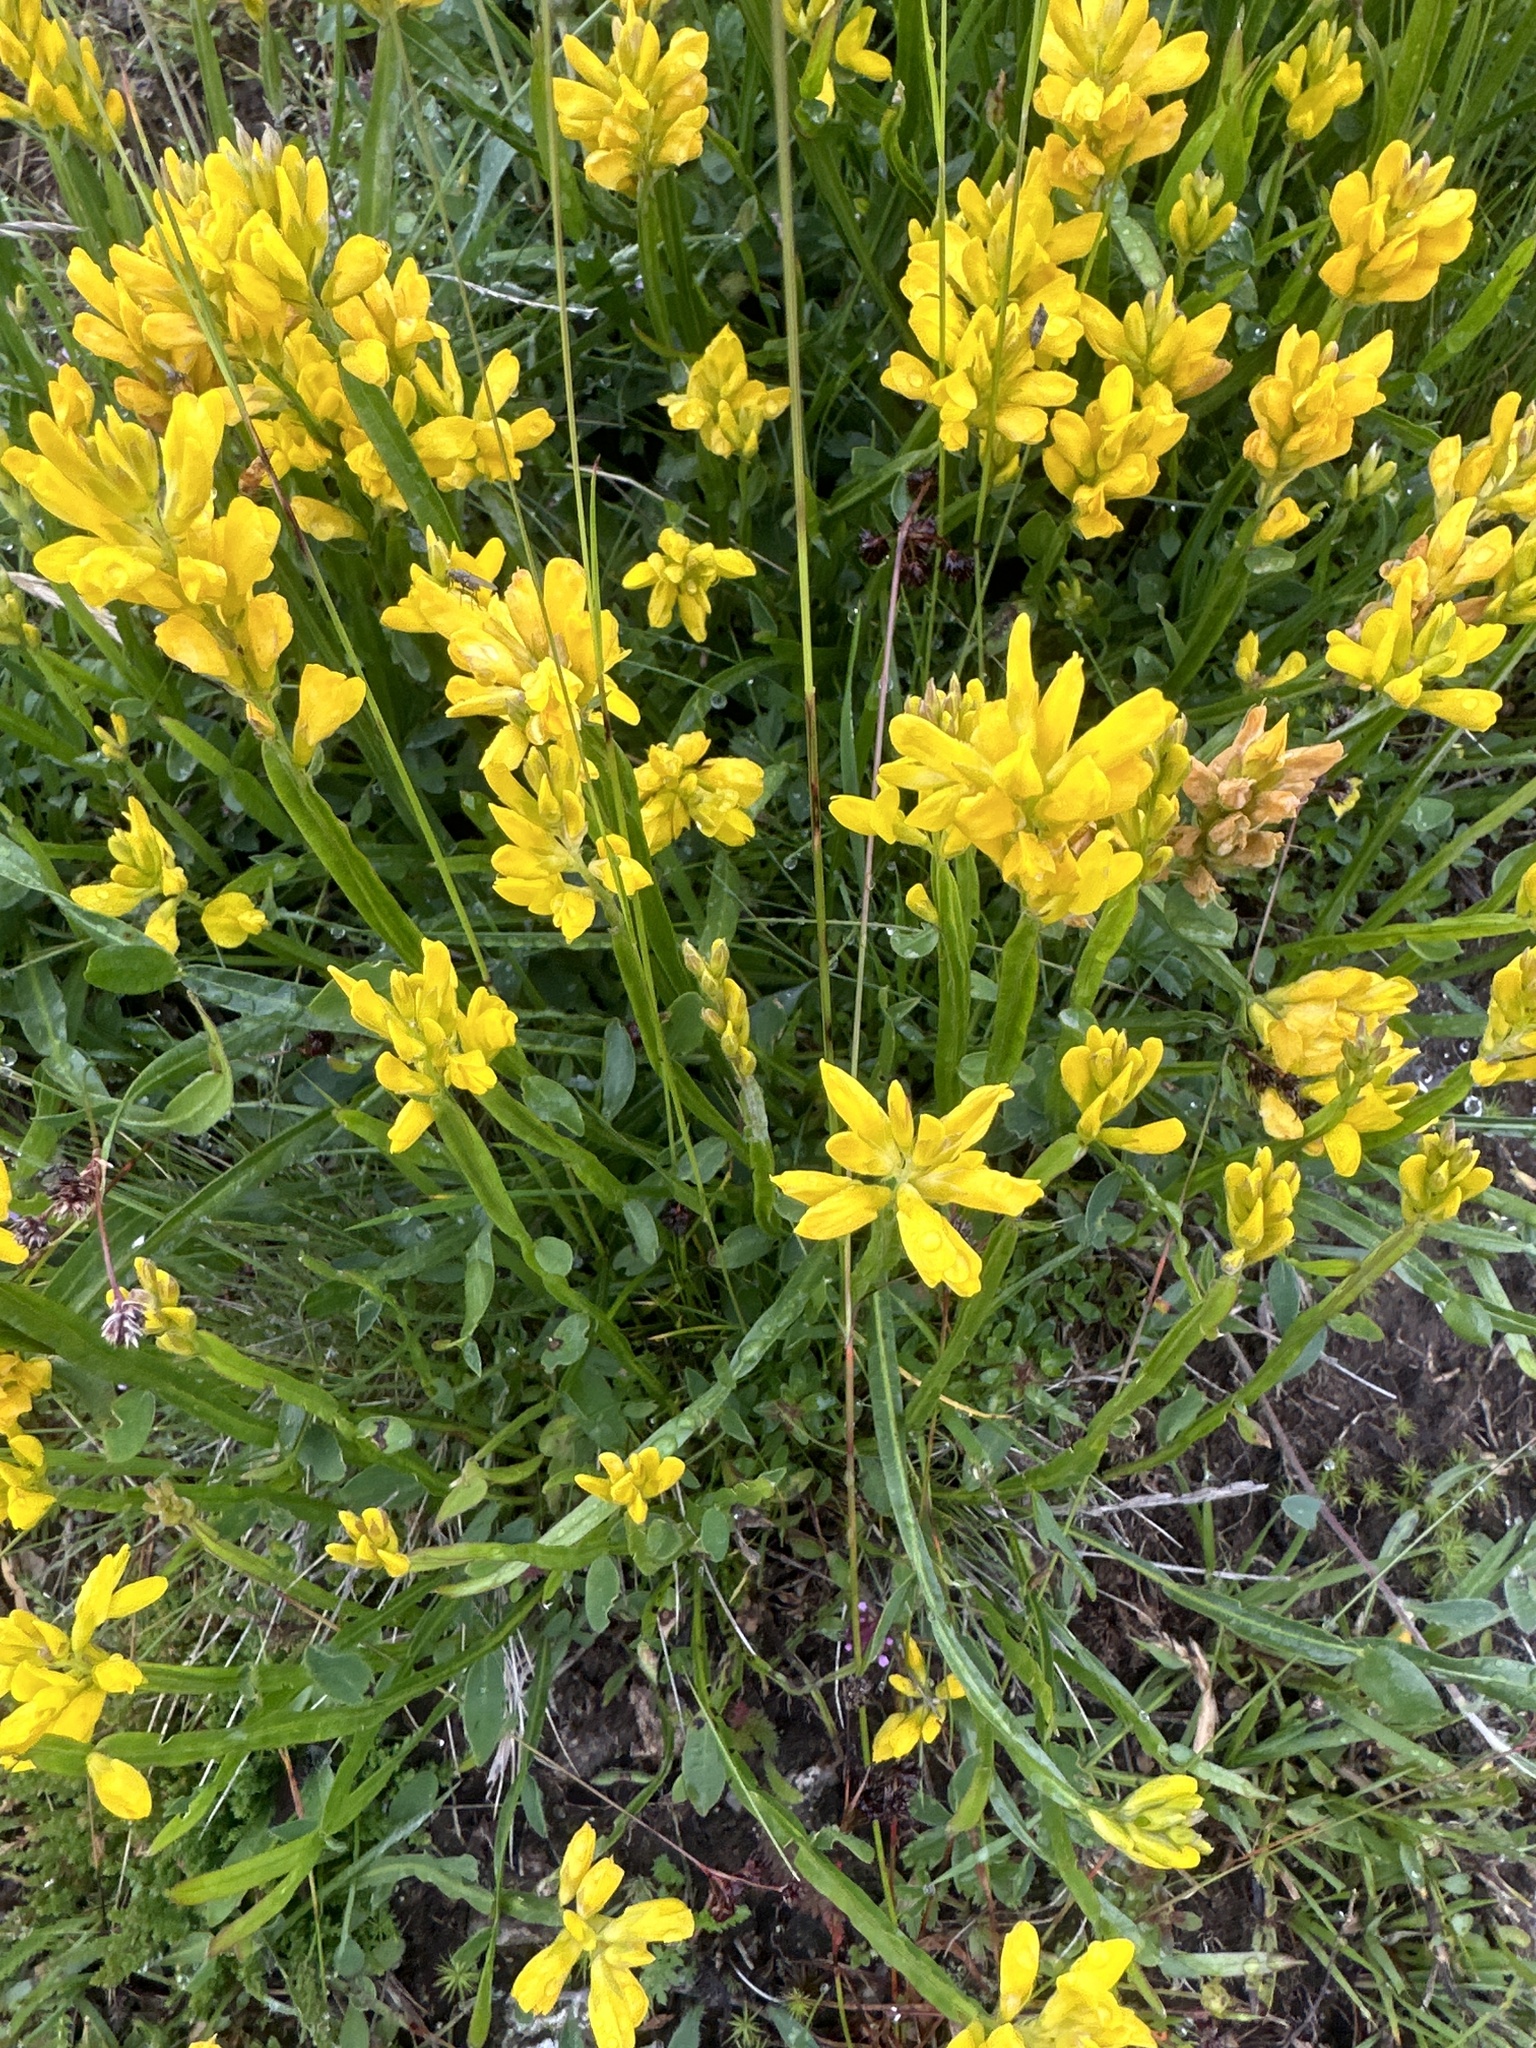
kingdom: Plantae
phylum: Tracheophyta
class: Magnoliopsida
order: Fabales
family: Fabaceae
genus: Genista
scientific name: Genista sagittalis
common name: Winged greenweed
